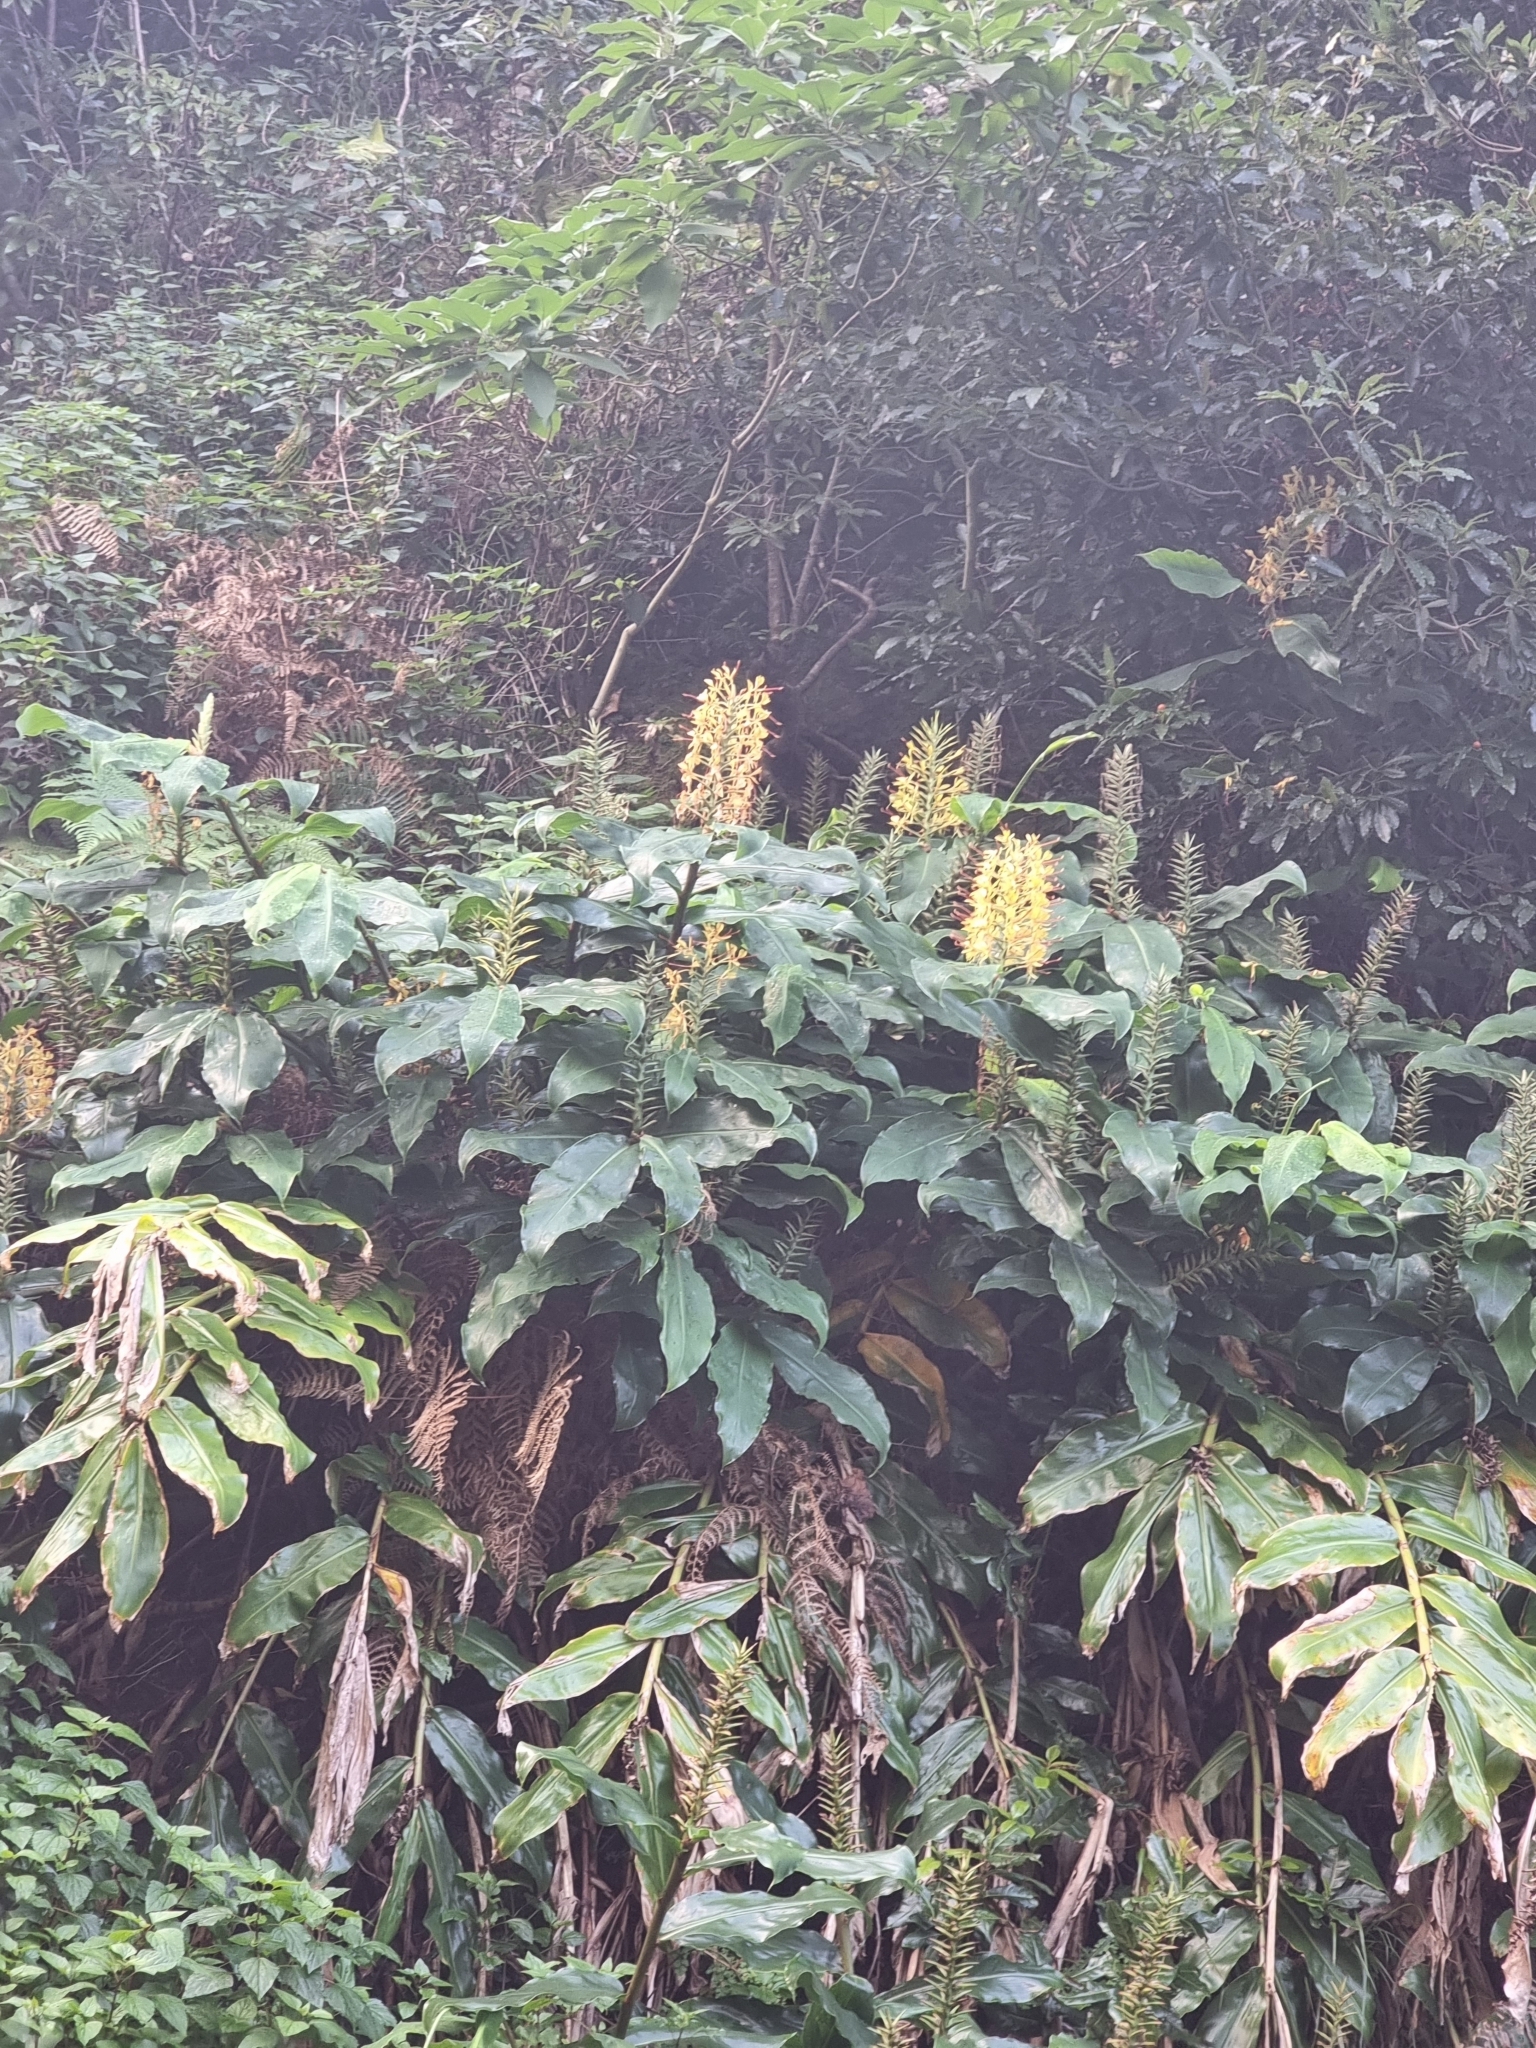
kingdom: Plantae
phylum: Tracheophyta
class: Liliopsida
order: Zingiberales
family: Zingiberaceae
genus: Hedychium
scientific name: Hedychium gardnerianum
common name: Himalayan ginger
